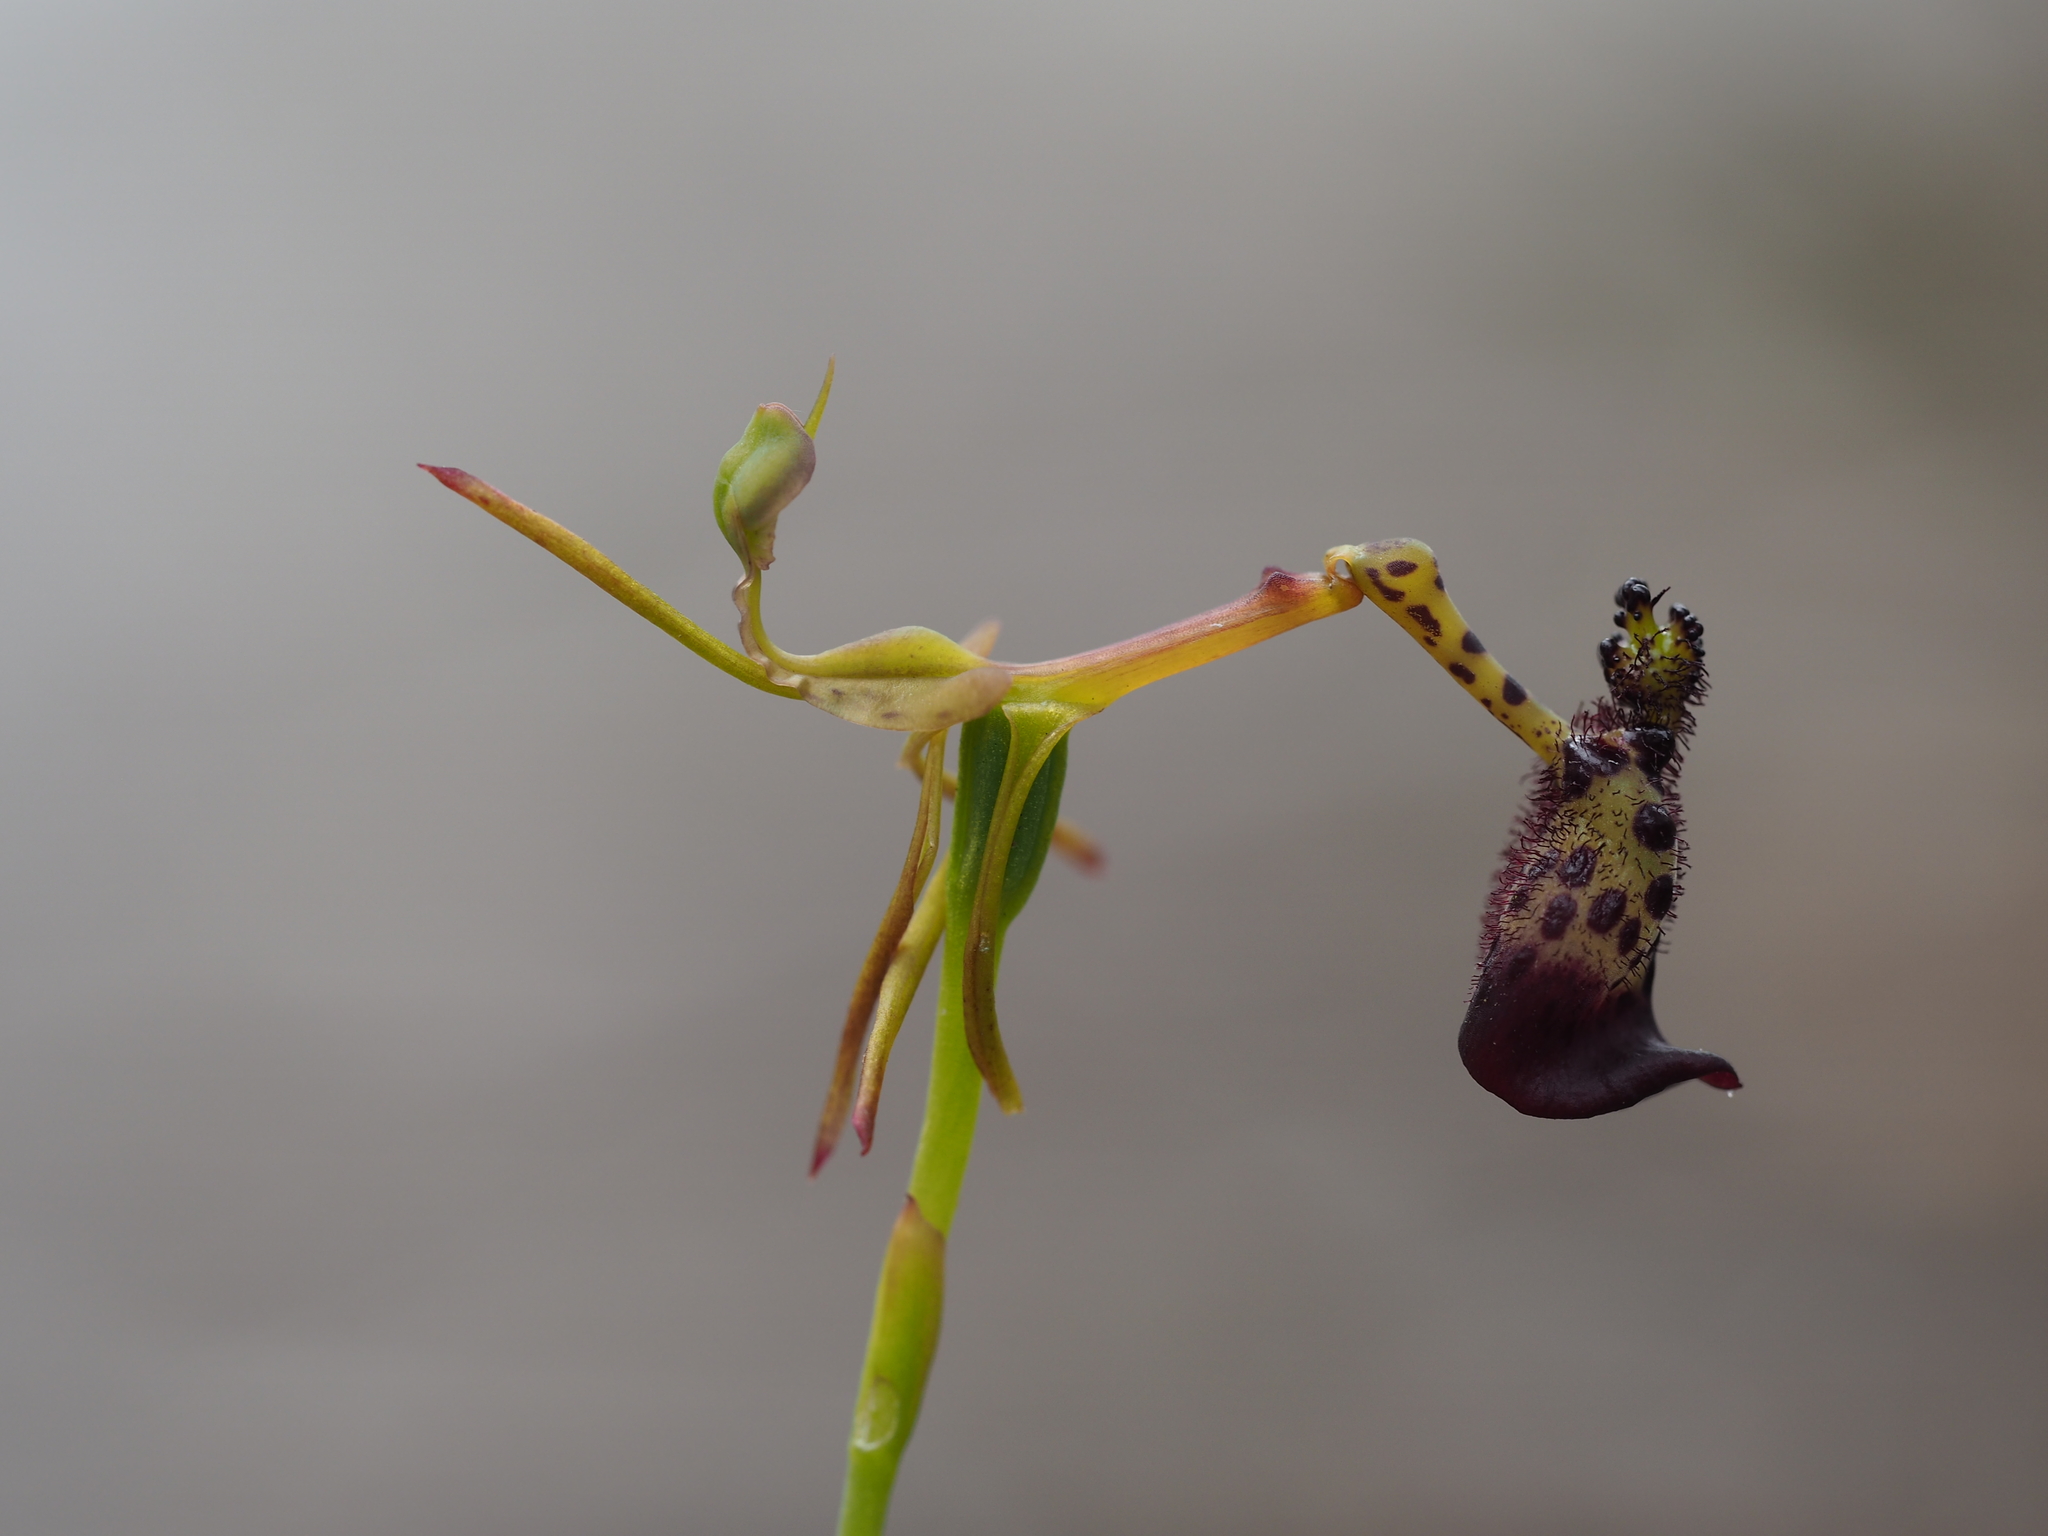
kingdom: Plantae
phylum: Tracheophyta
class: Liliopsida
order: Asparagales
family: Orchidaceae
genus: Drakaea
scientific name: Drakaea livida
